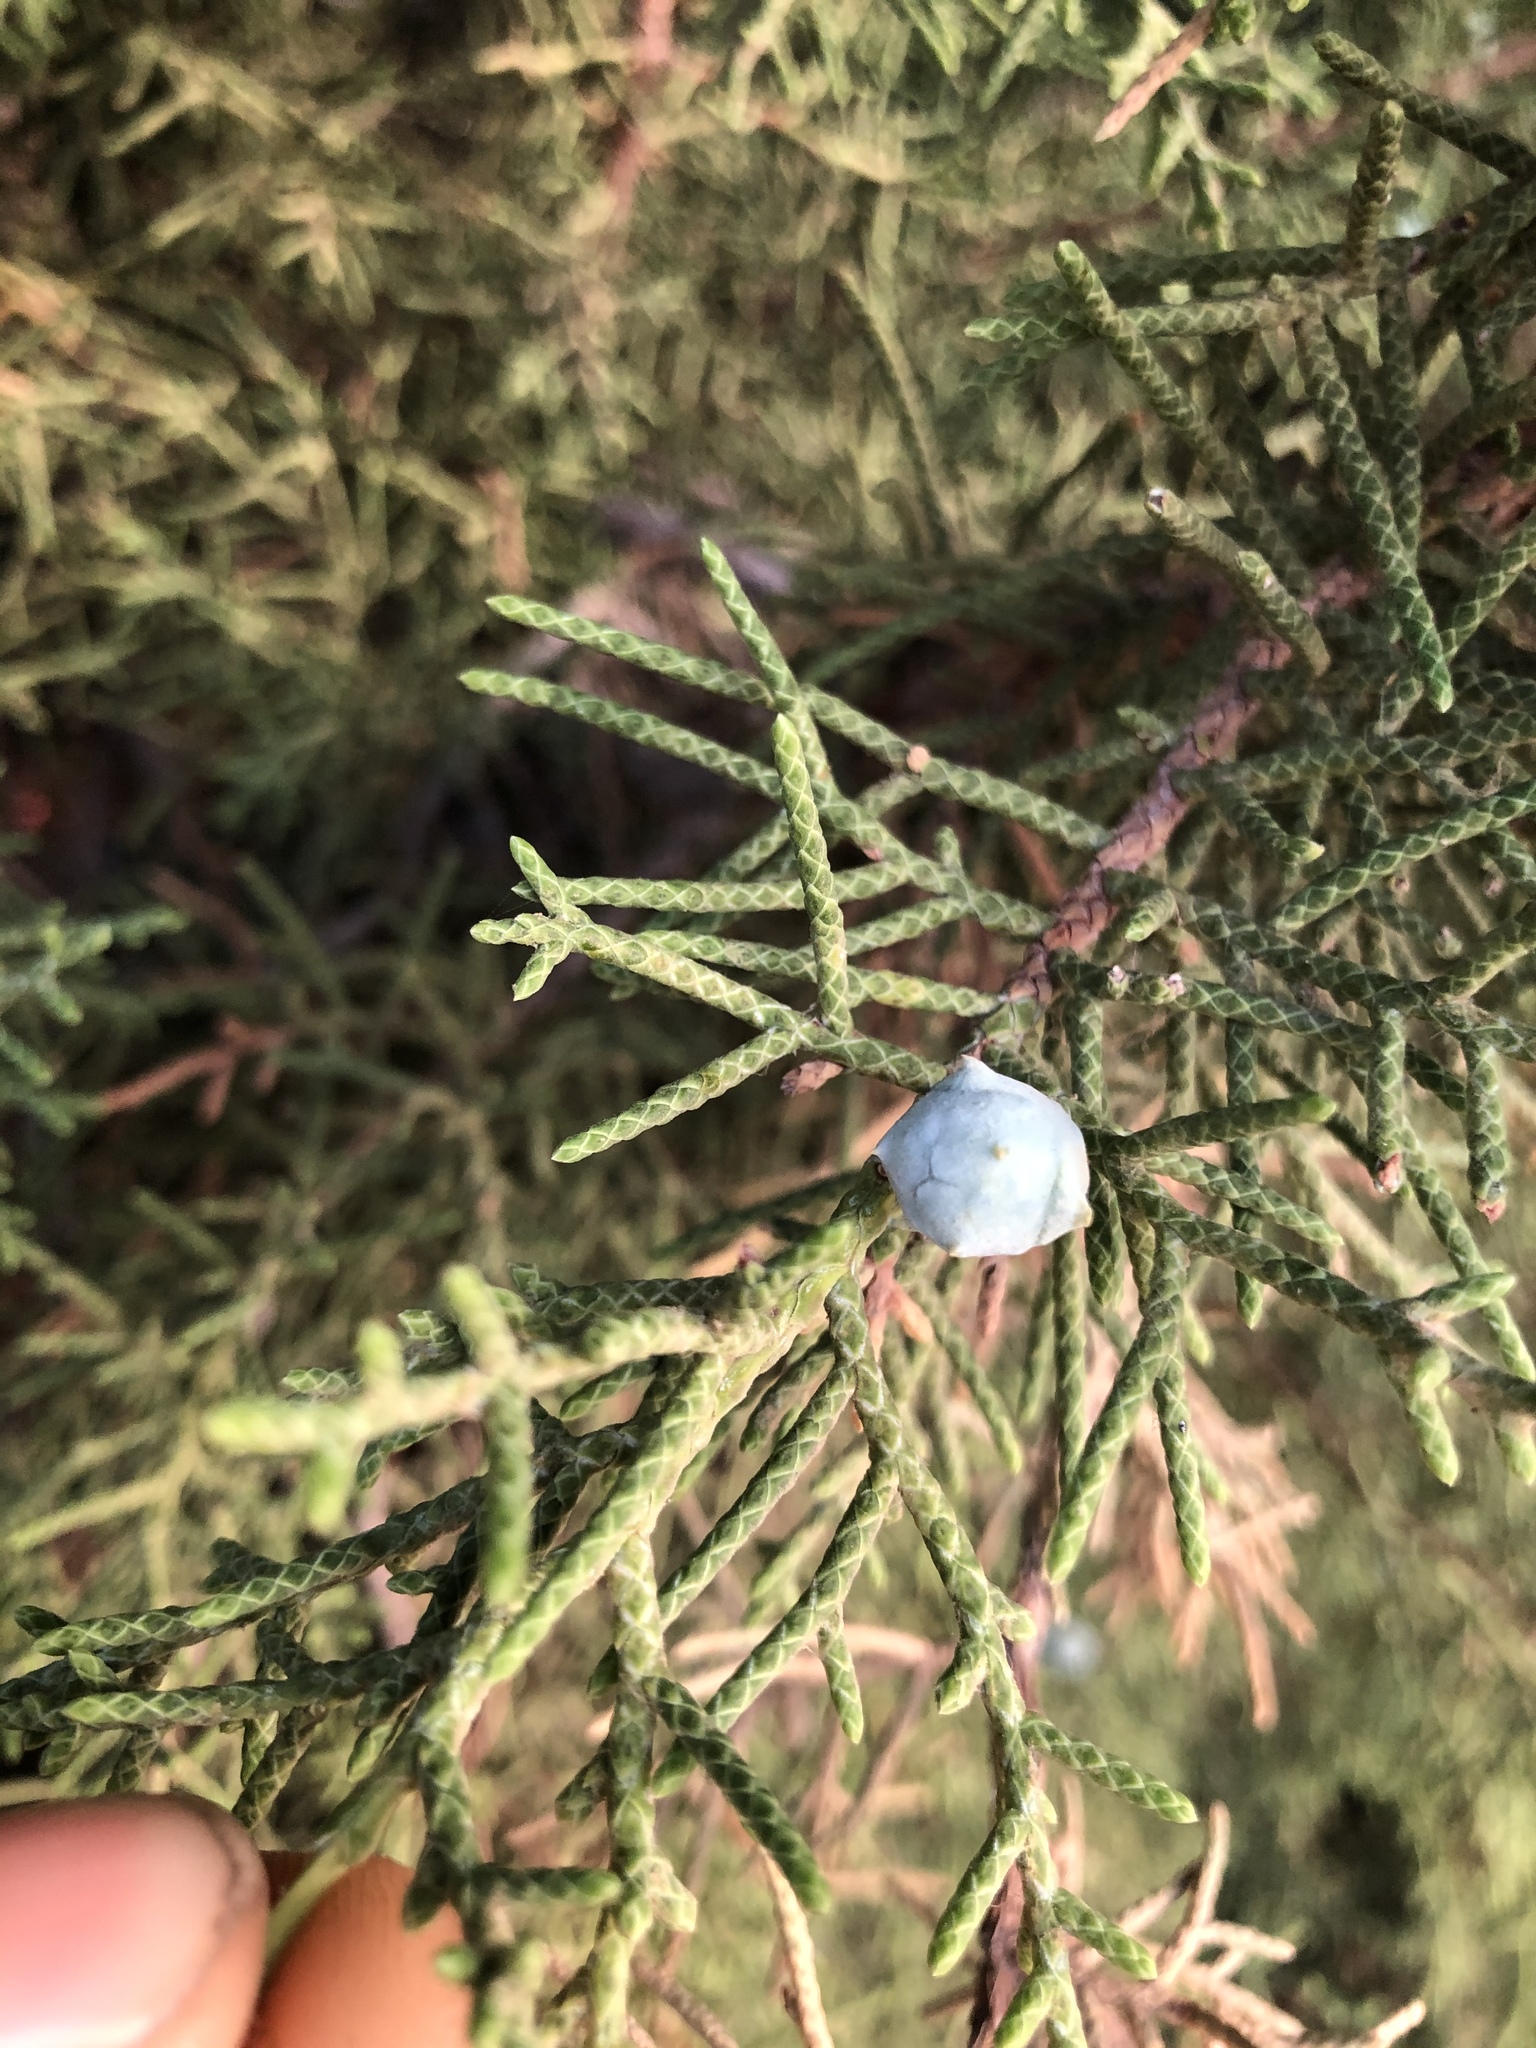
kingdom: Plantae
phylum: Tracheophyta
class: Pinopsida
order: Pinales
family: Cupressaceae
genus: Juniperus
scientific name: Juniperus californica
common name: California juniper
